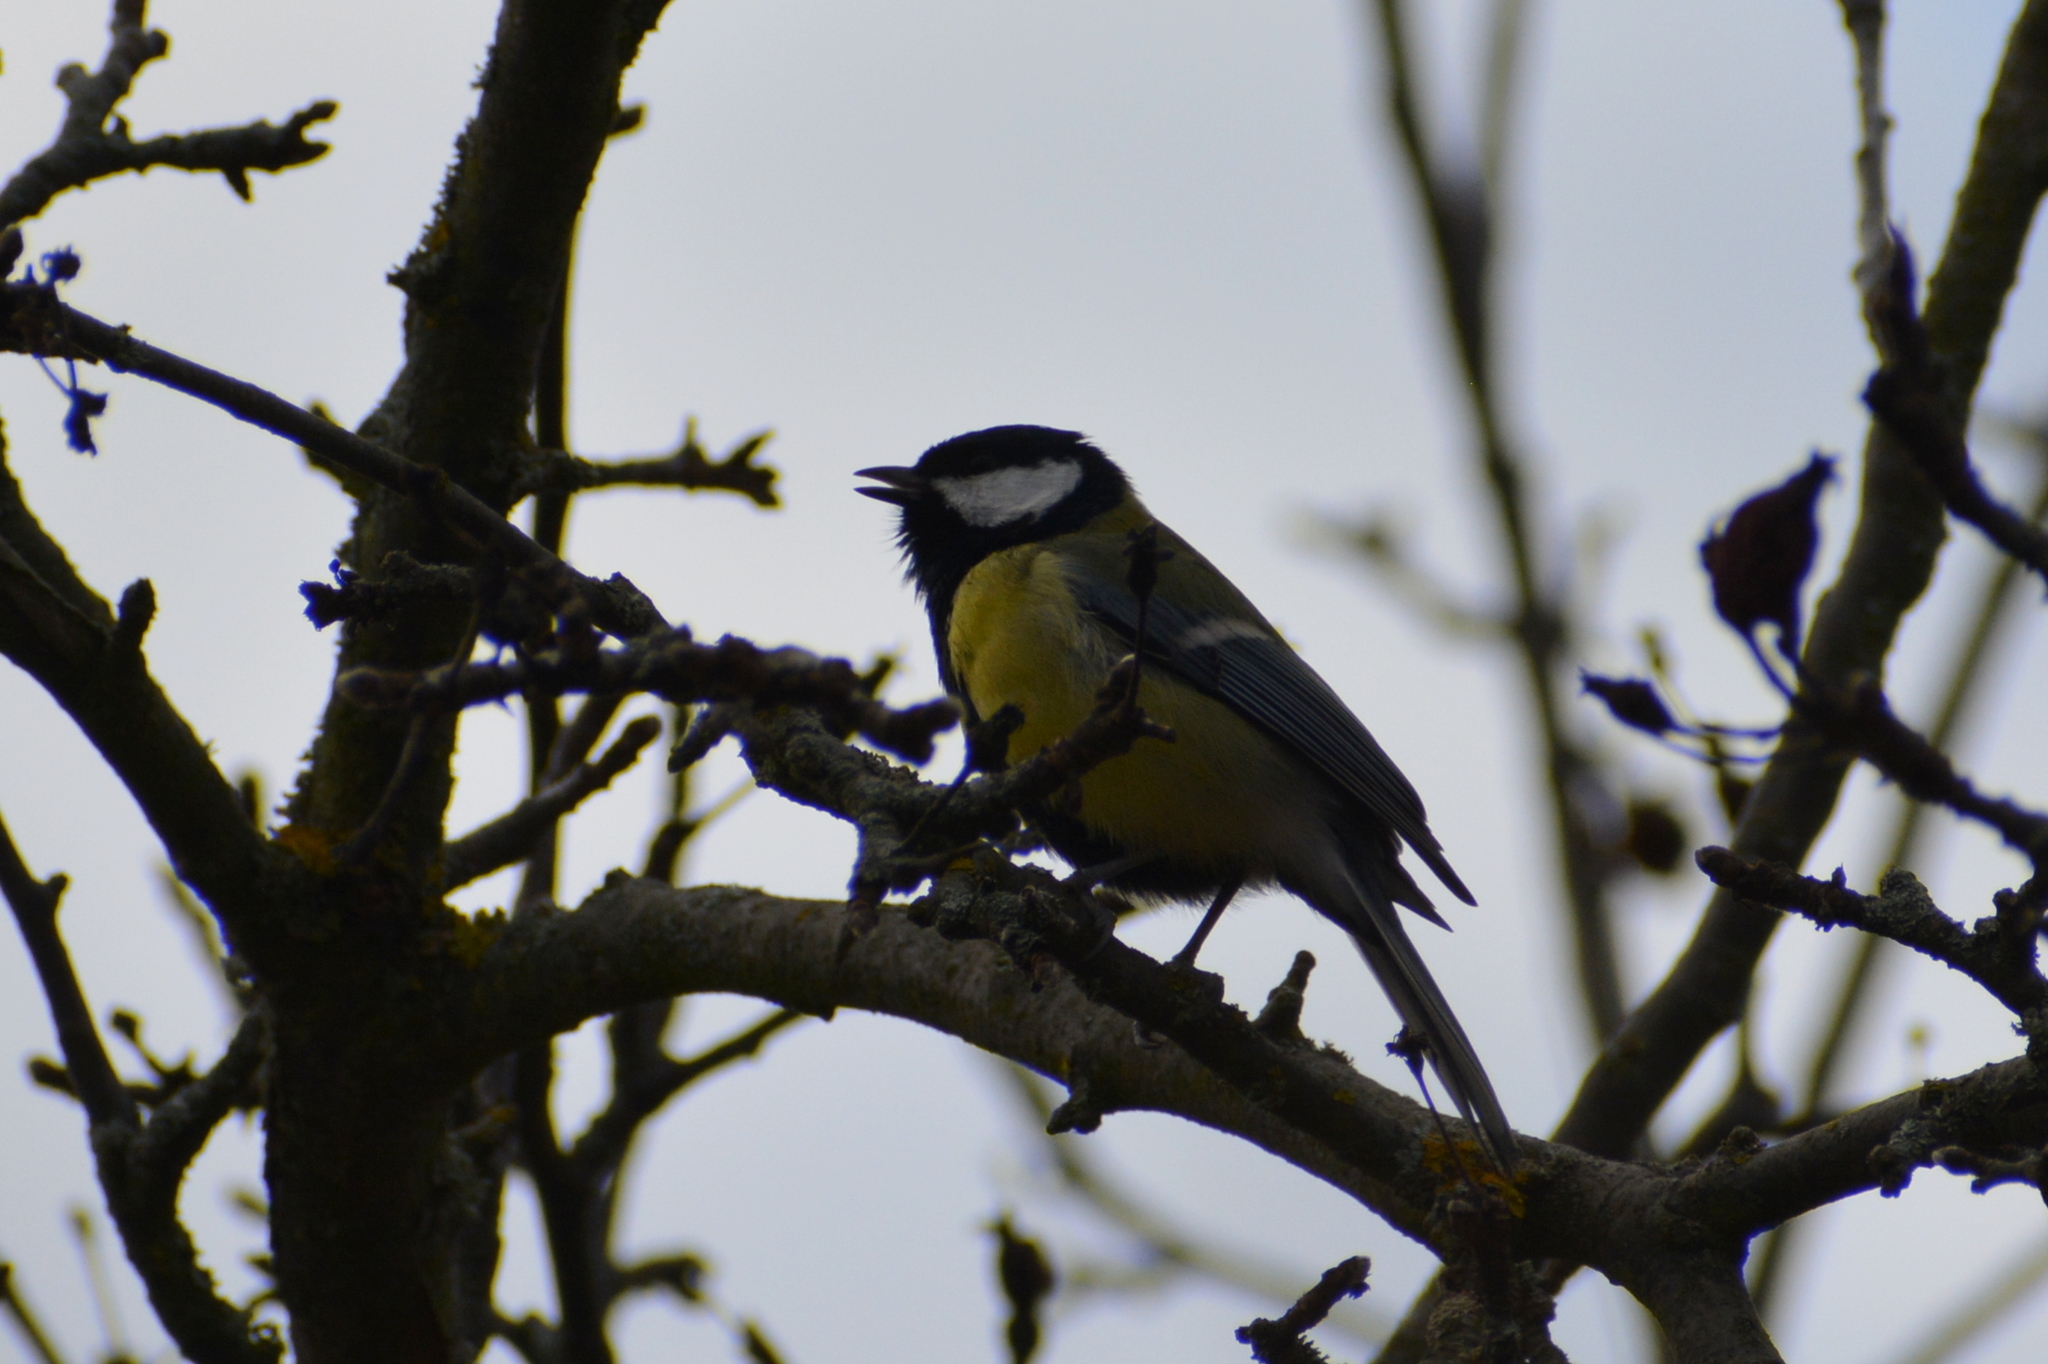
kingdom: Animalia
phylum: Chordata
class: Aves
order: Passeriformes
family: Paridae
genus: Parus
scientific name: Parus major
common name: Great tit
